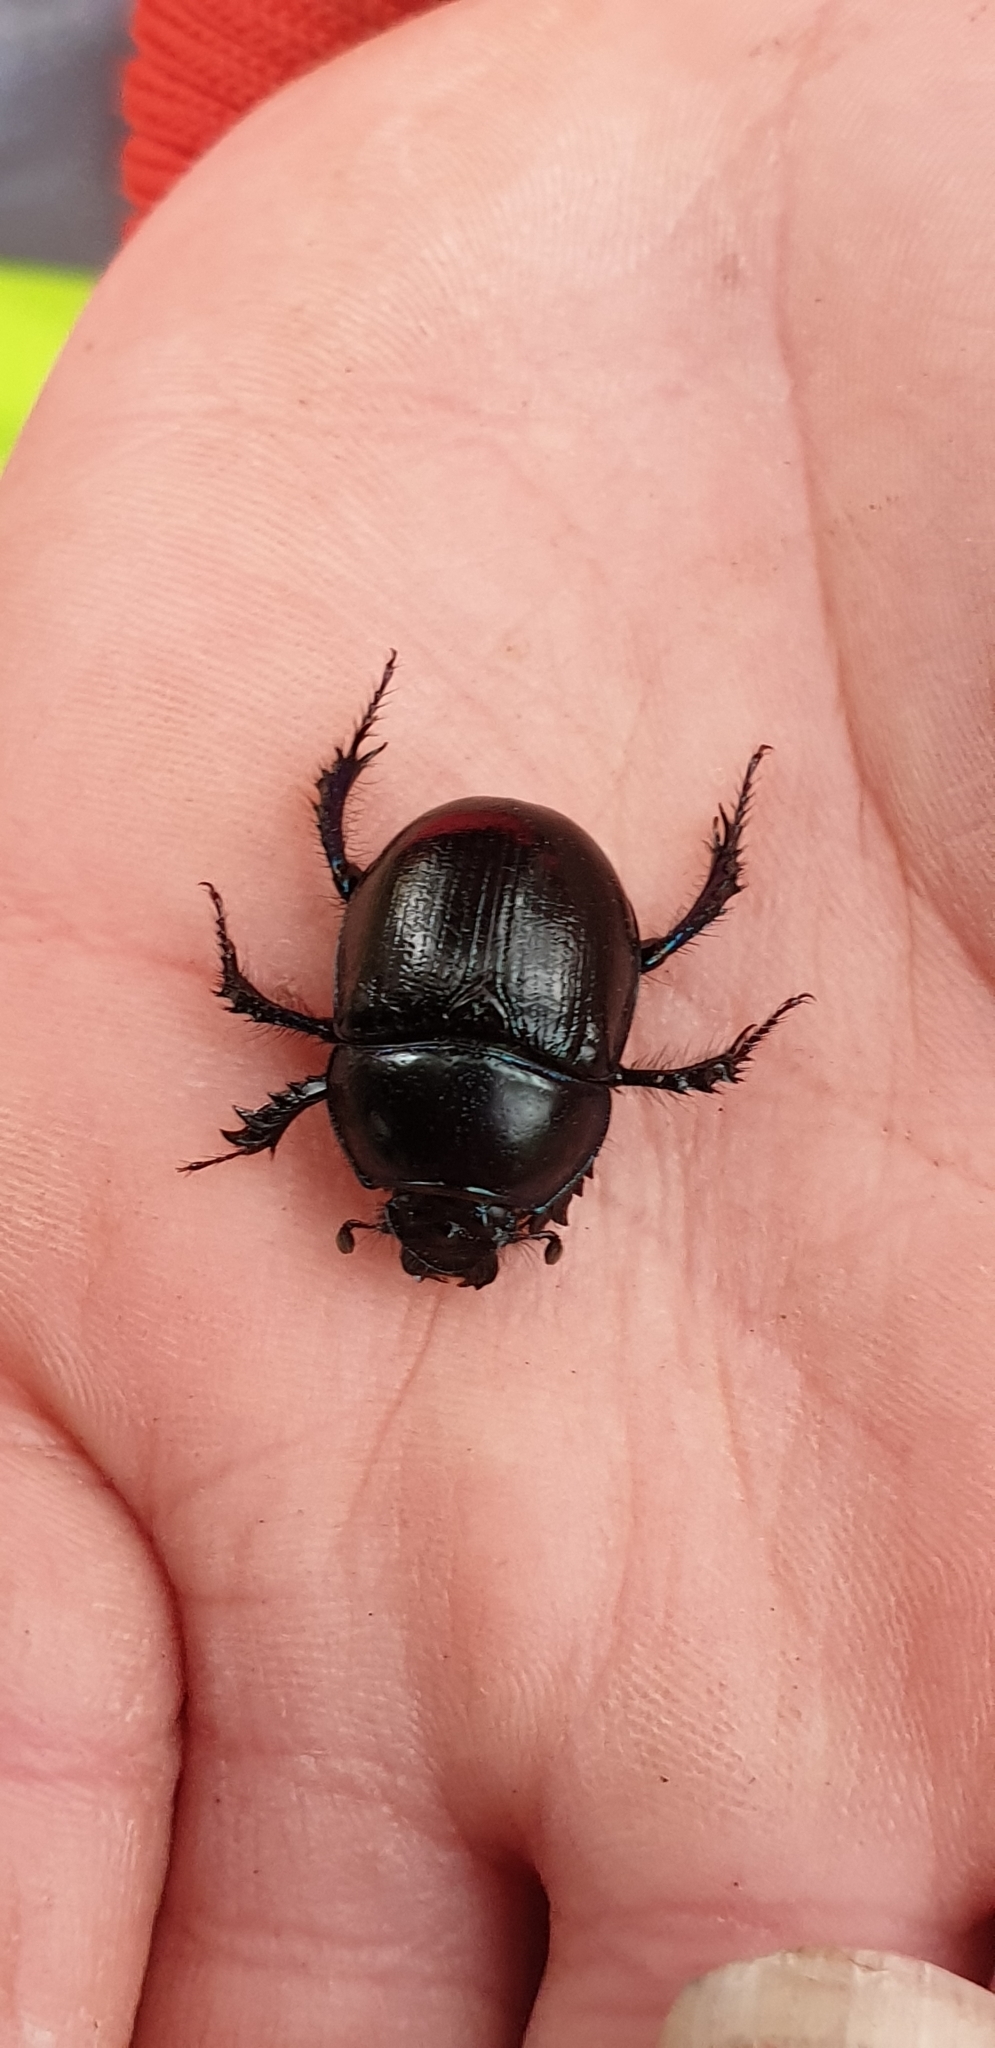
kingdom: Animalia
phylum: Arthropoda
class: Insecta
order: Coleoptera
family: Geotrupidae
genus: Anoplotrupes
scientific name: Anoplotrupes stercorosus
